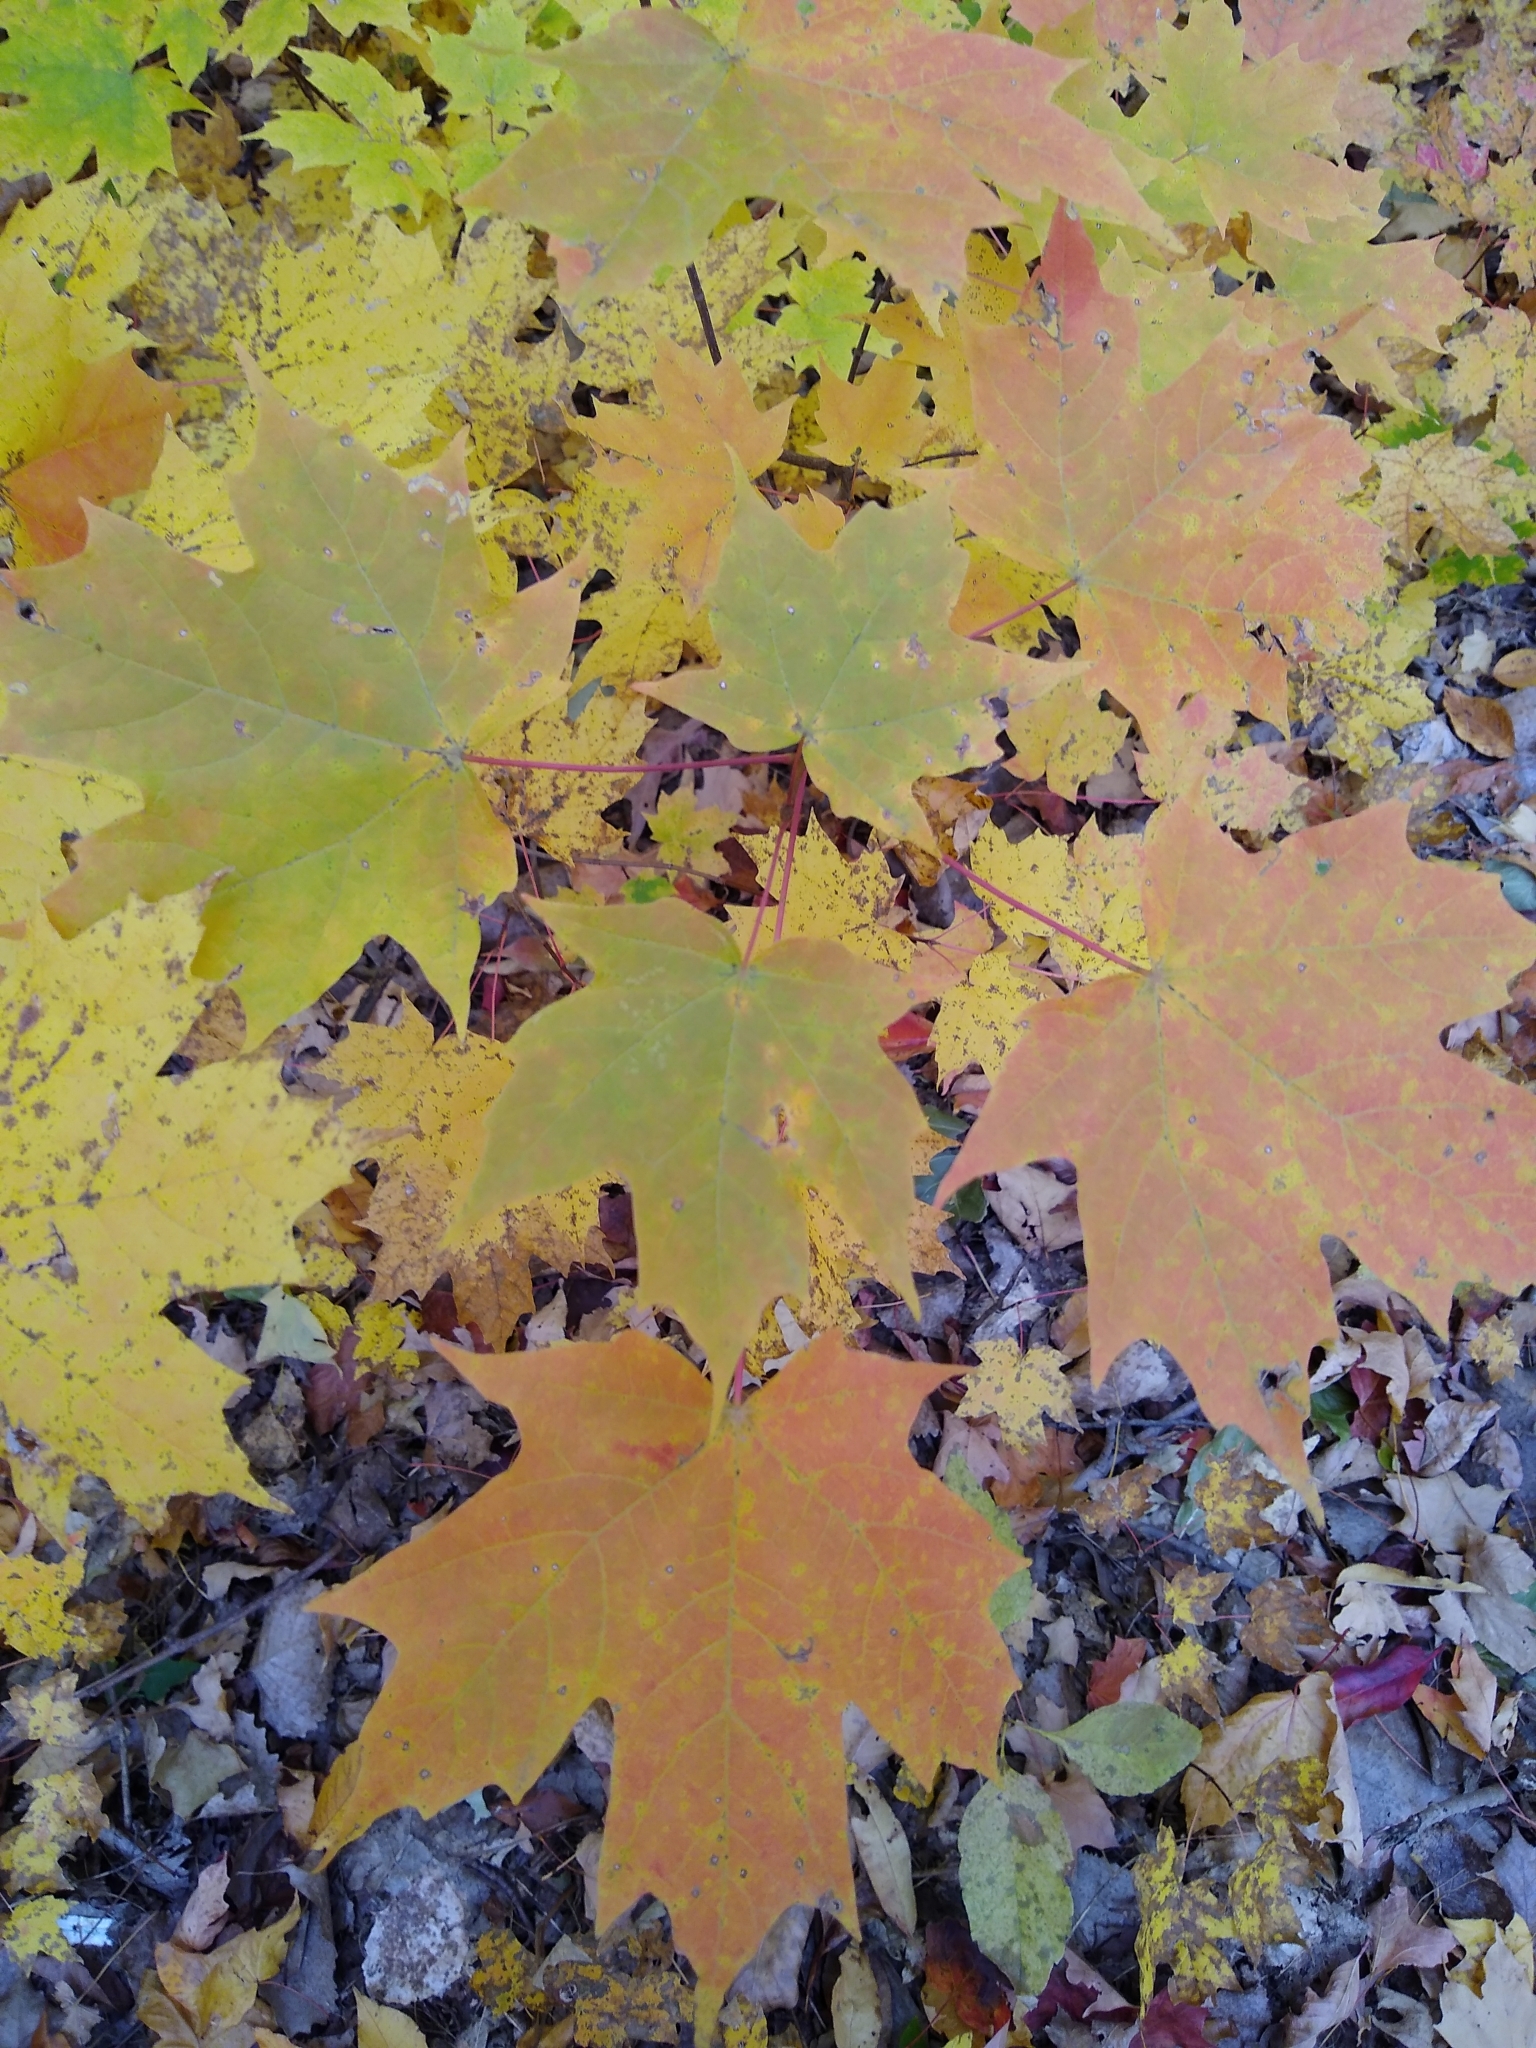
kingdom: Plantae
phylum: Tracheophyta
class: Magnoliopsida
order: Sapindales
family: Sapindaceae
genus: Acer
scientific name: Acer saccharum
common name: Sugar maple
